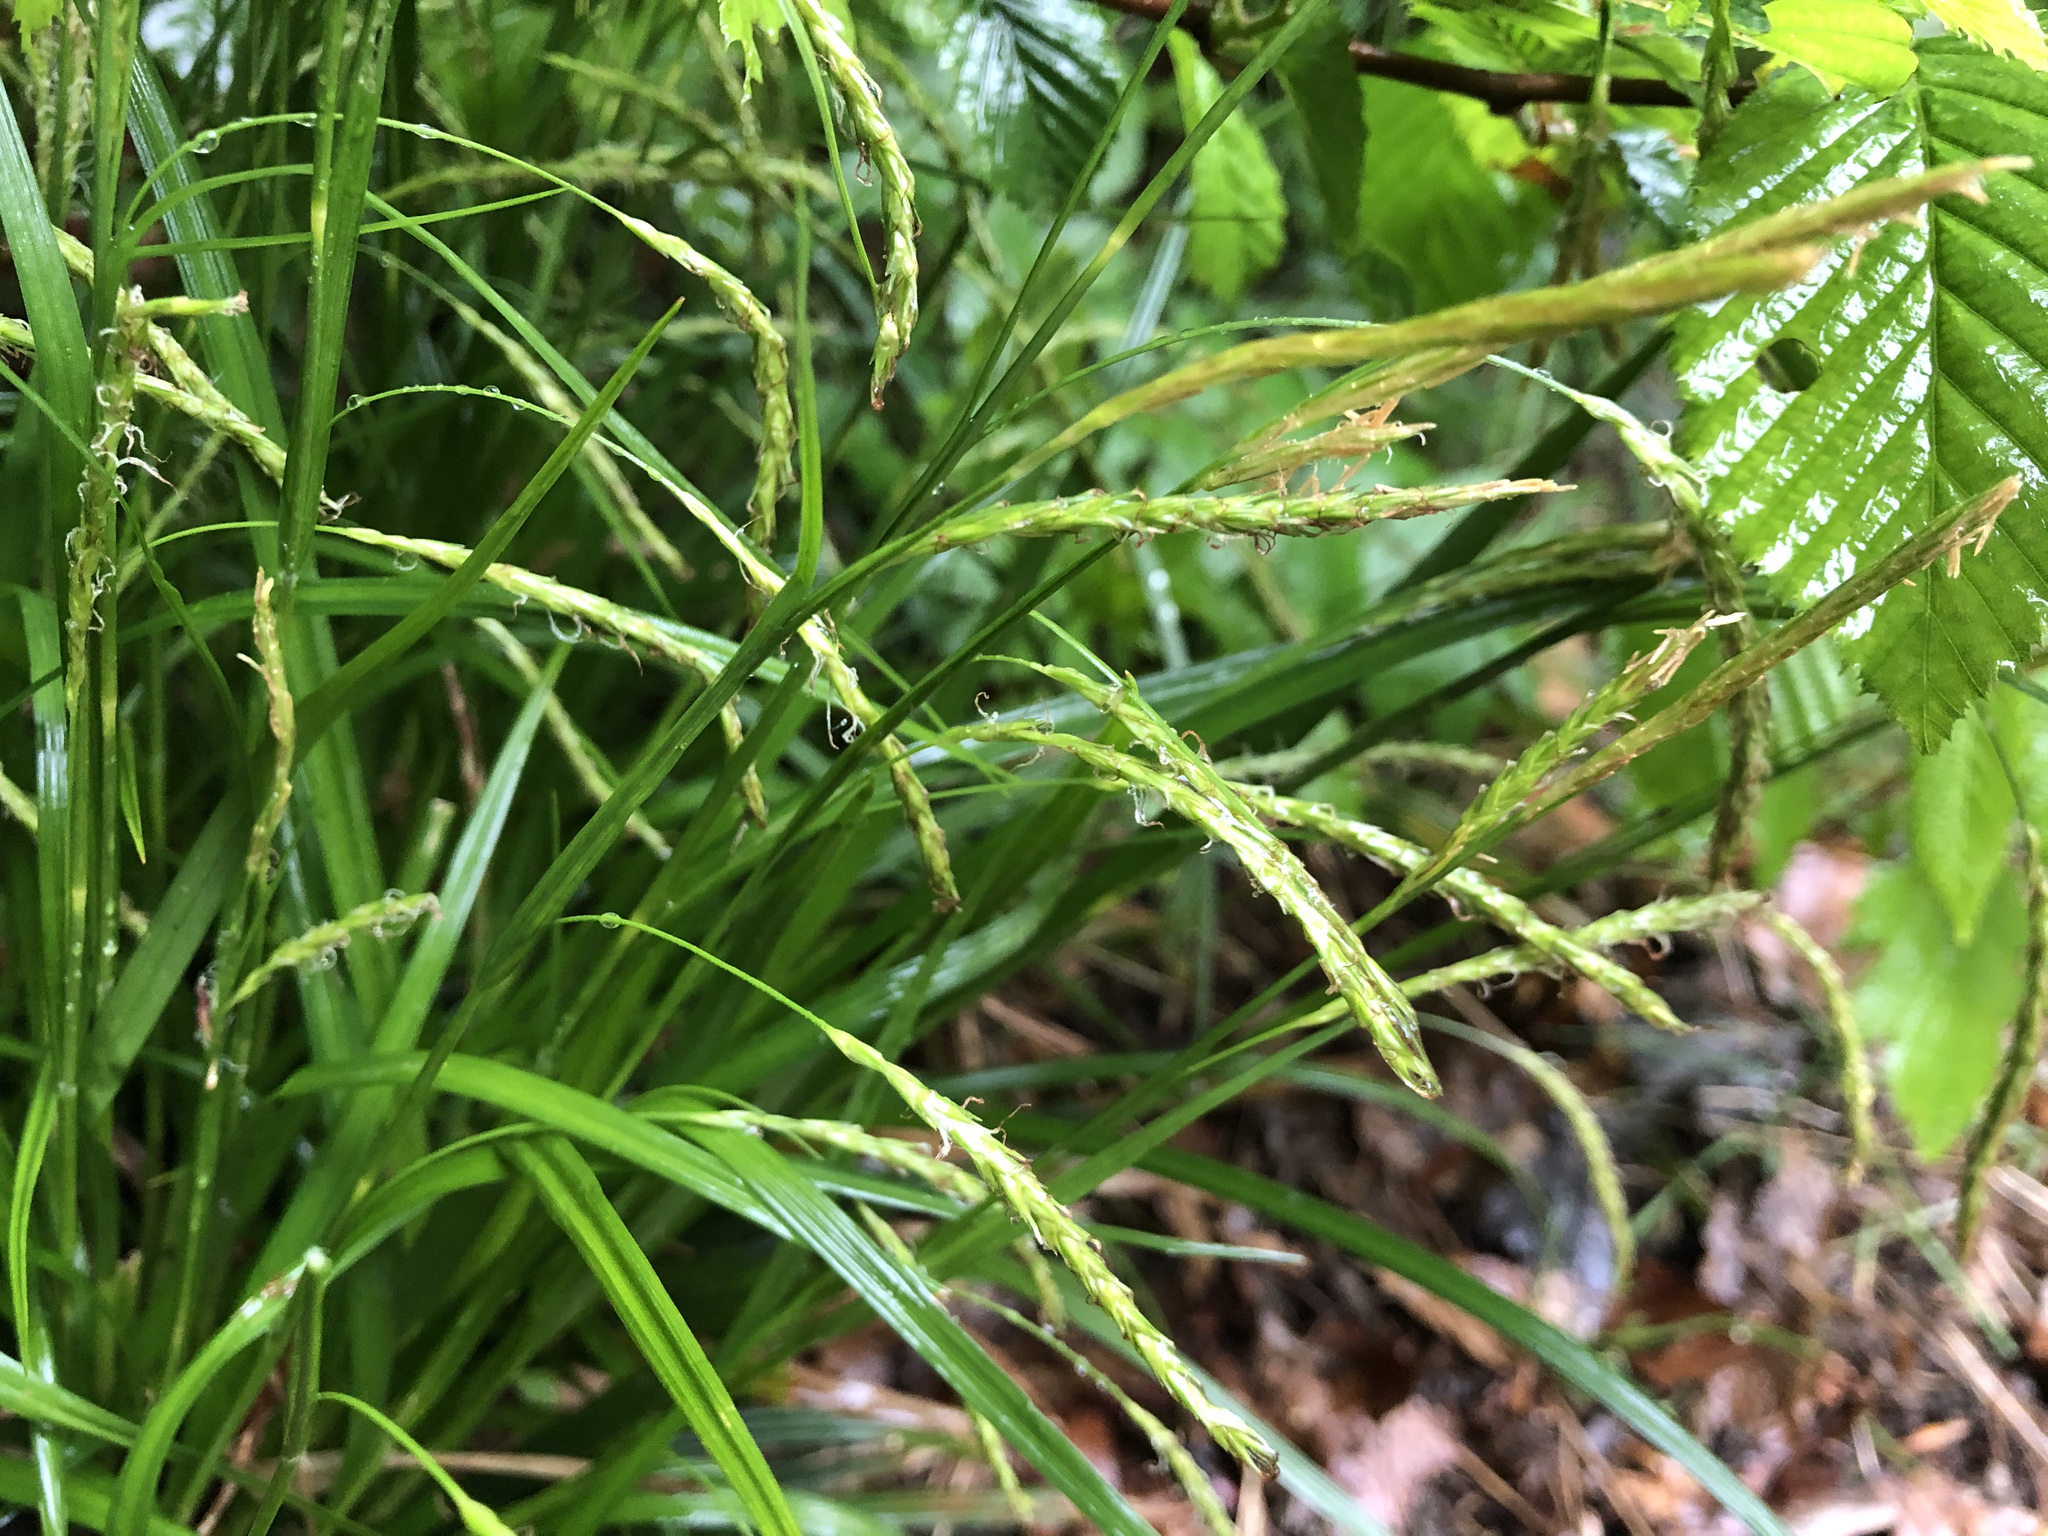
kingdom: Plantae
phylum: Tracheophyta
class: Liliopsida
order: Poales
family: Cyperaceae
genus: Carex
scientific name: Carex sylvatica
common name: Wood-sedge
